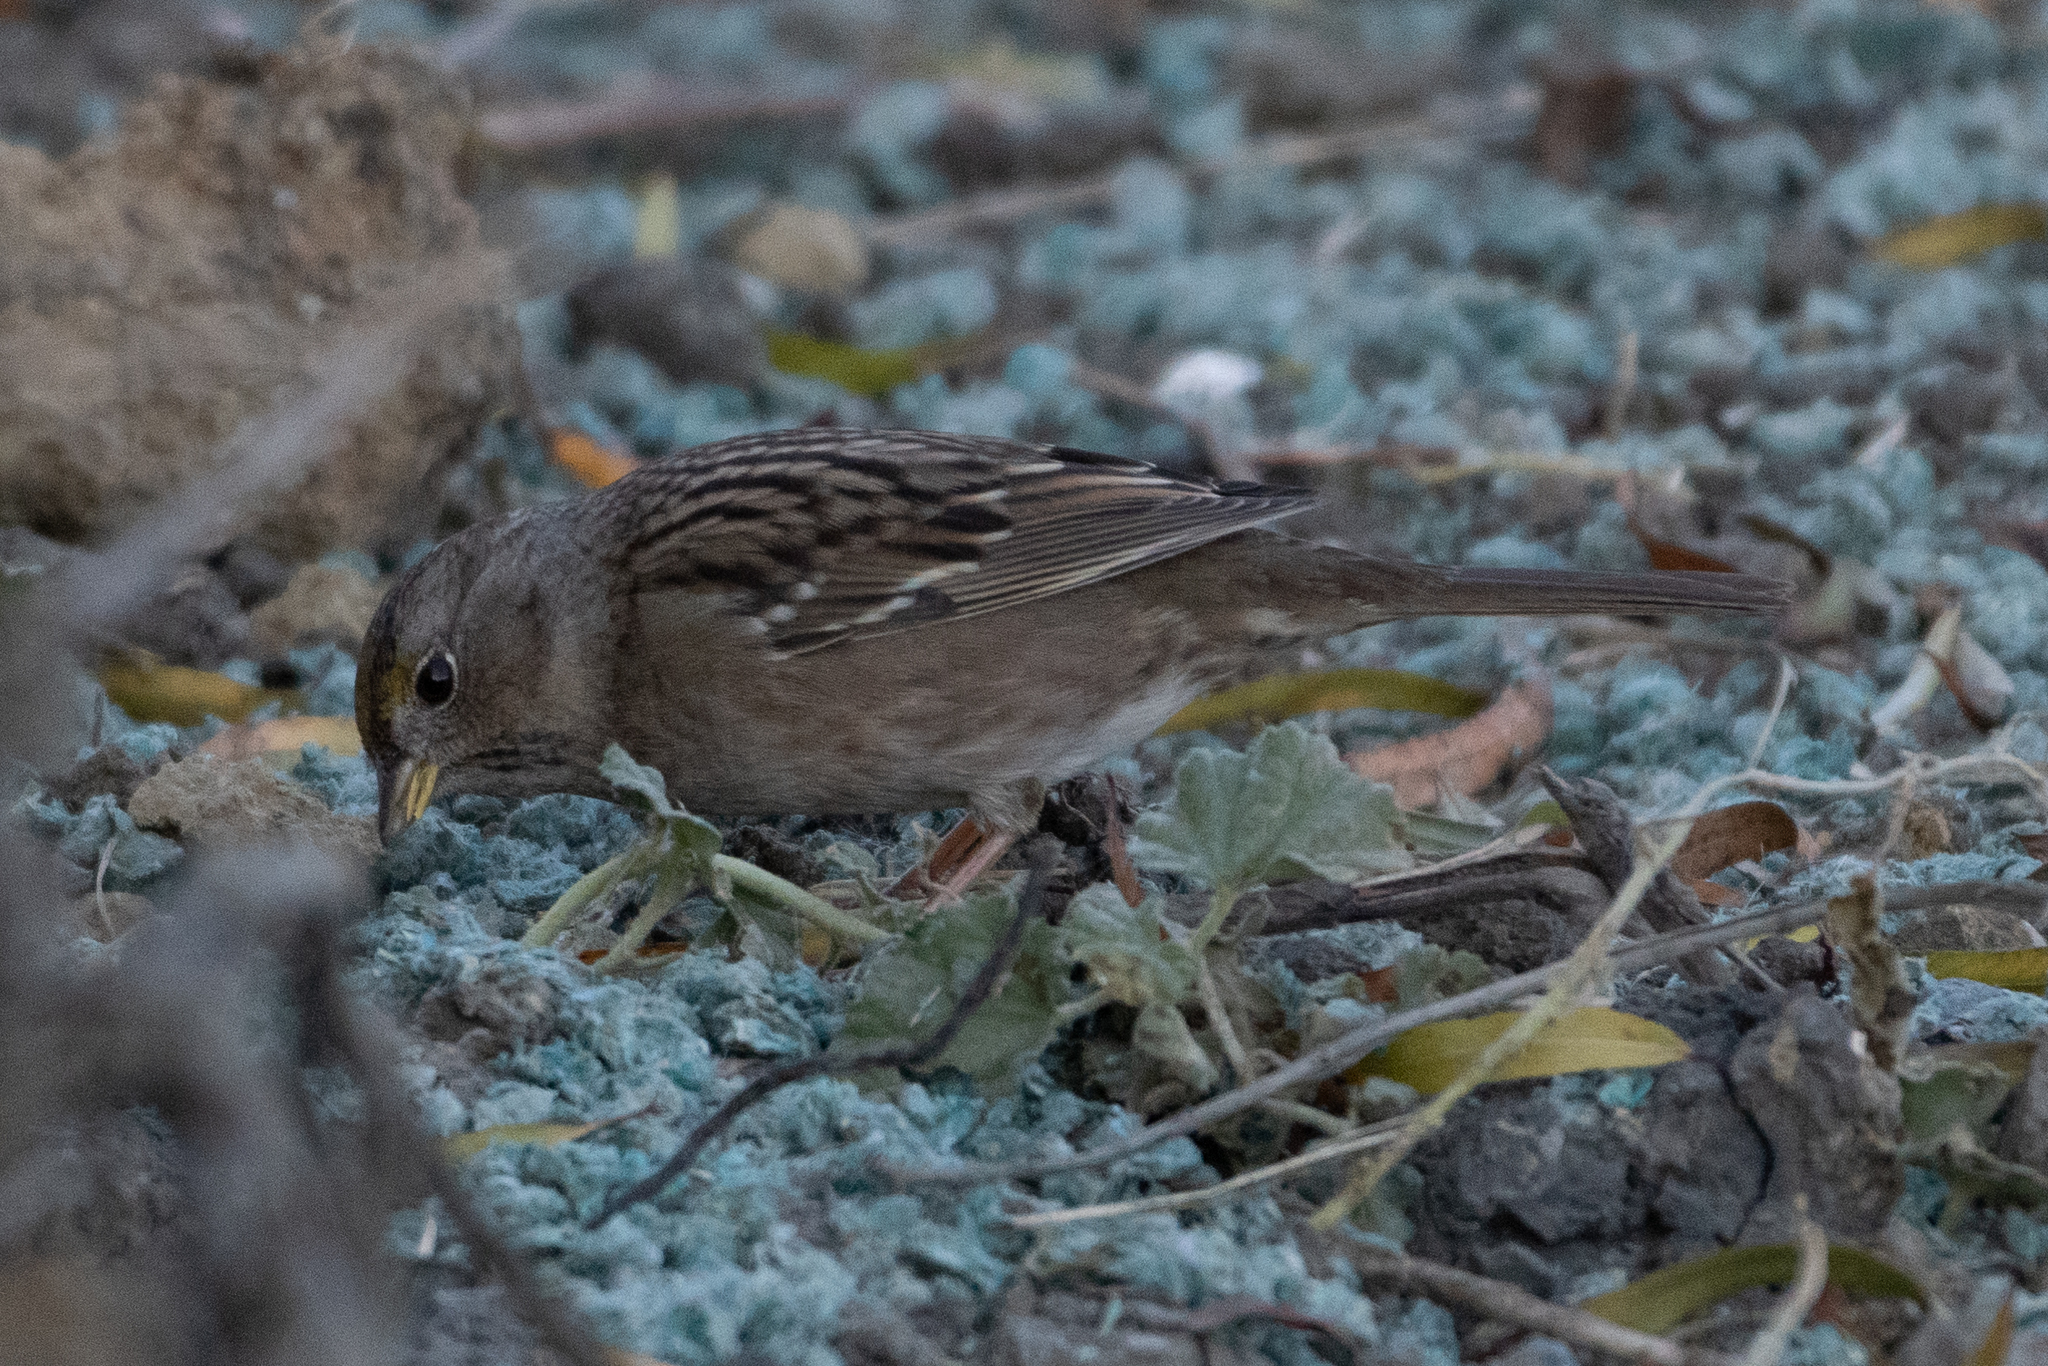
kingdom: Animalia
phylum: Chordata
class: Aves
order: Passeriformes
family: Passerellidae
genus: Zonotrichia
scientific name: Zonotrichia atricapilla
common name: Golden-crowned sparrow
